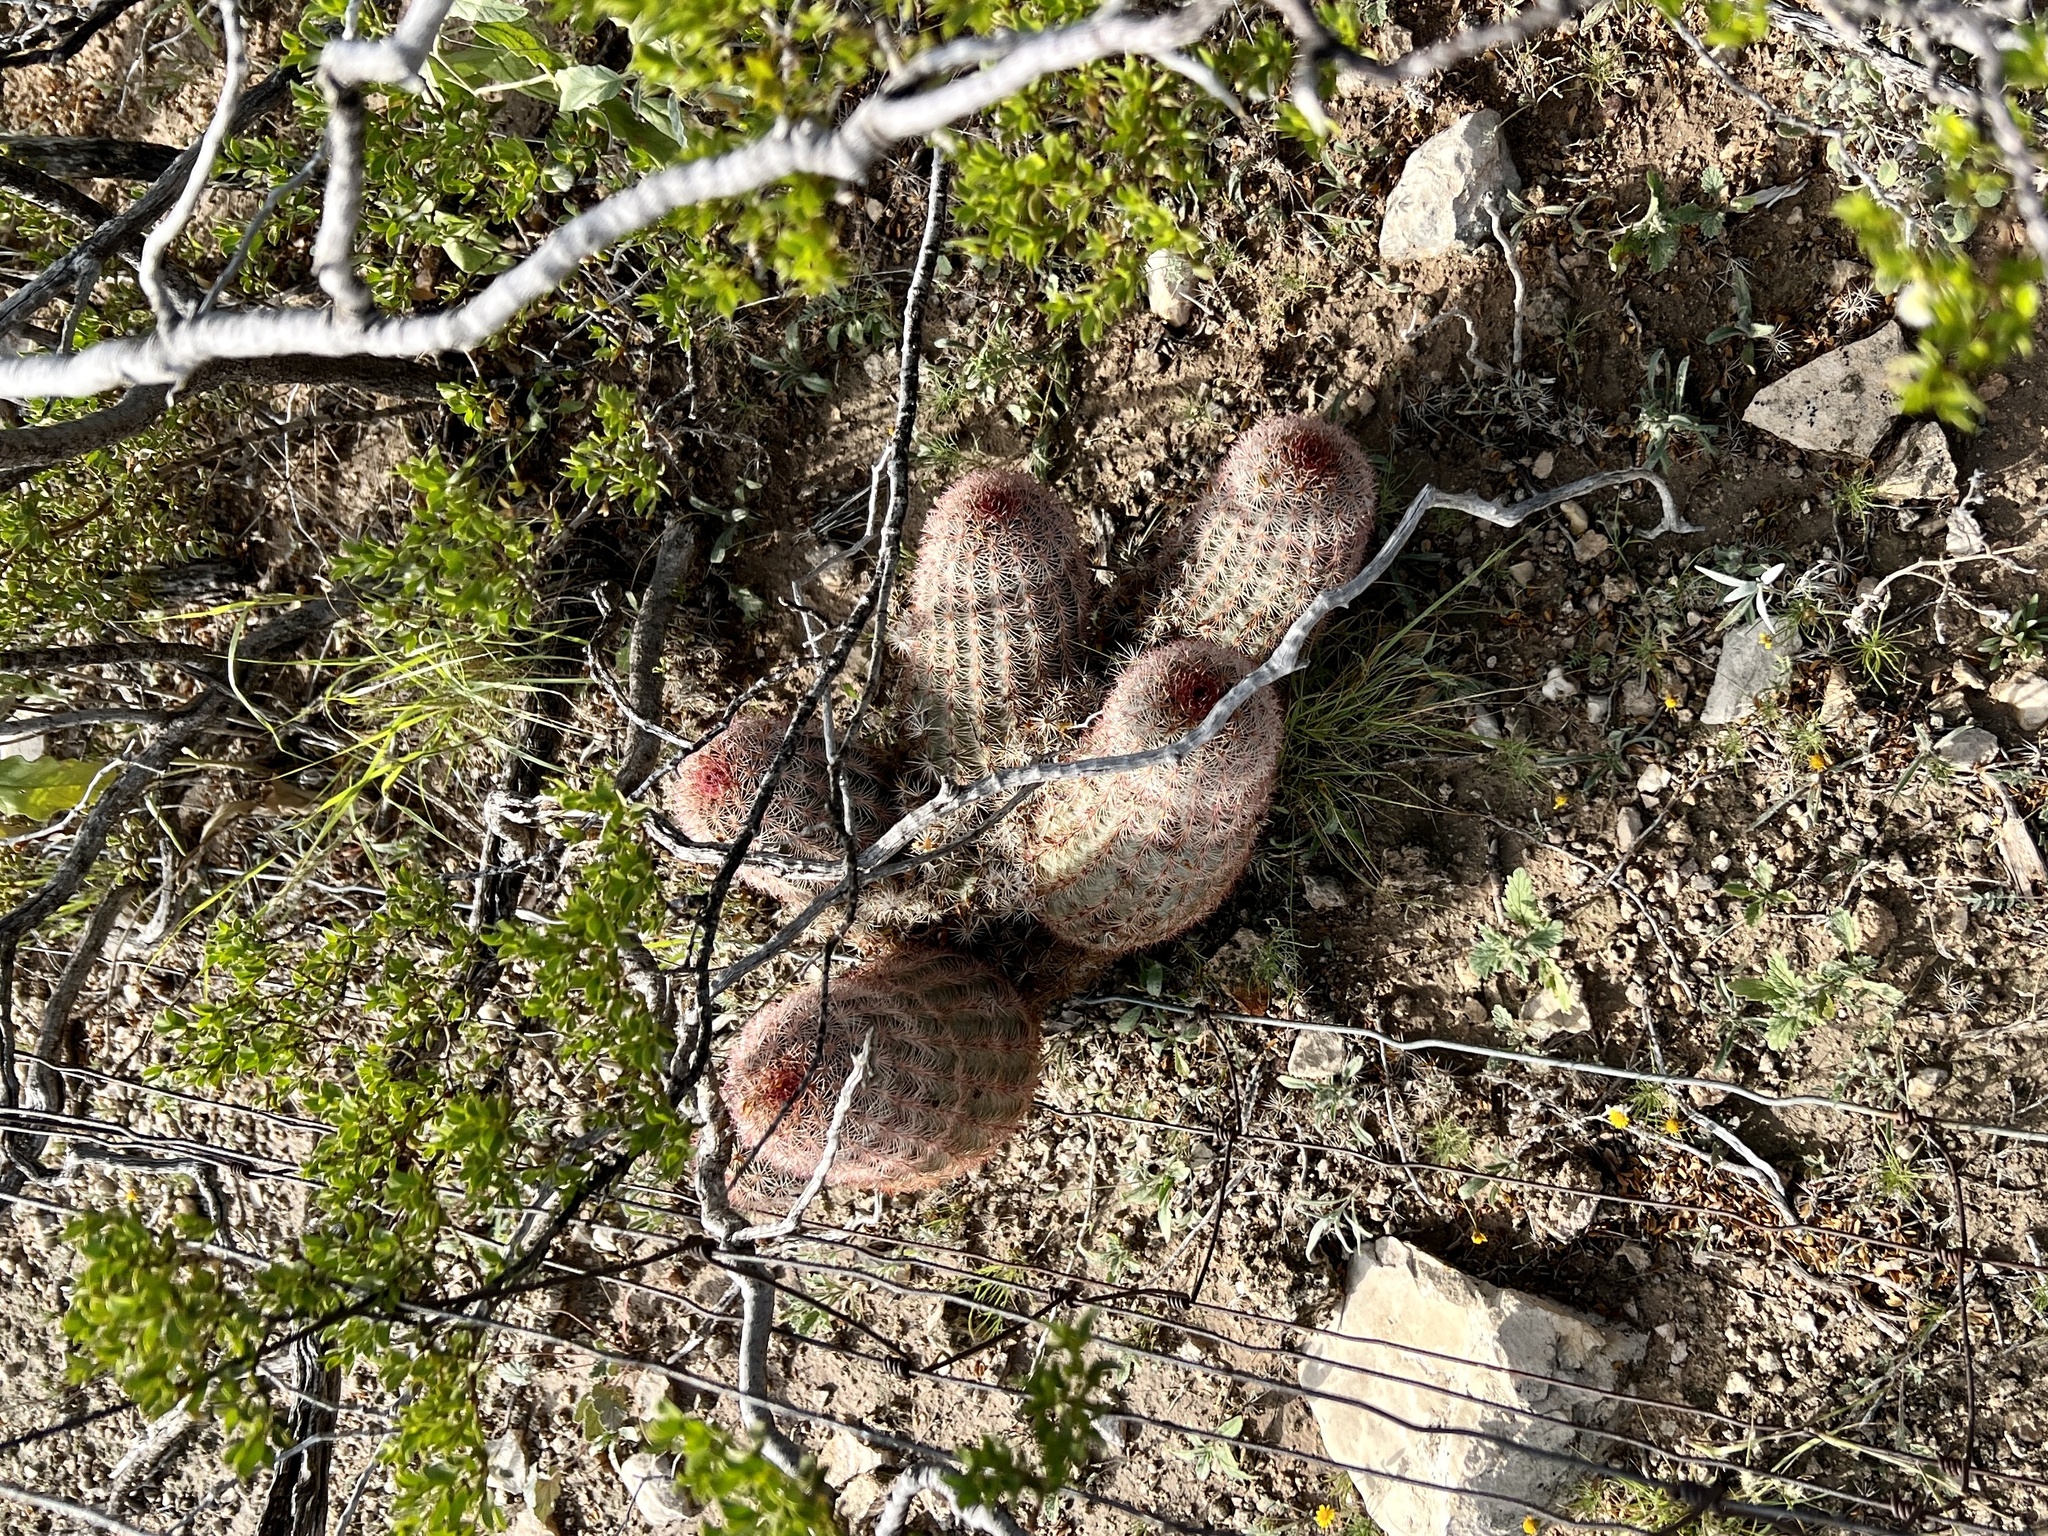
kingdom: Plantae
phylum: Tracheophyta
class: Magnoliopsida
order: Caryophyllales
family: Cactaceae
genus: Echinocereus
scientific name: Echinocereus dasyacanthus
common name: Spiny hedgehog cactus
